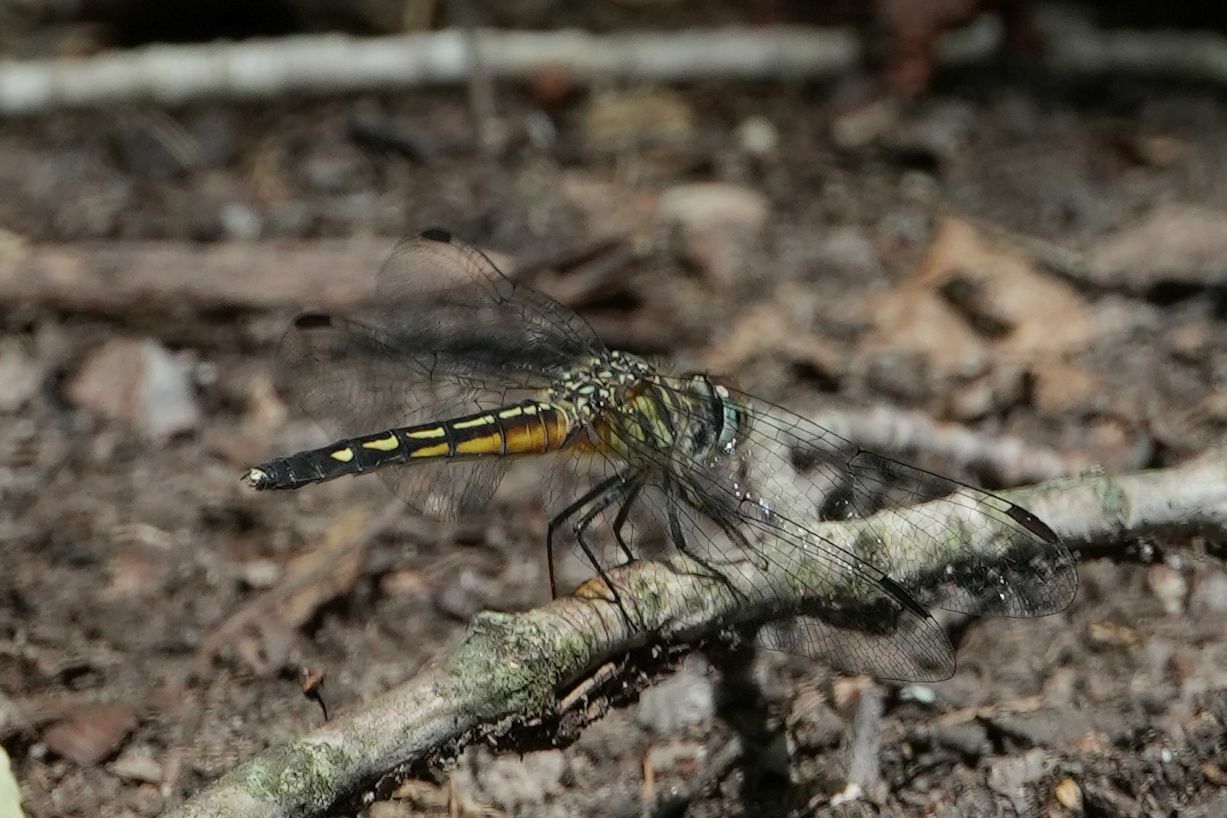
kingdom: Animalia
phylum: Arthropoda
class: Insecta
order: Odonata
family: Libellulidae
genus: Pachydiplax
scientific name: Pachydiplax longipennis
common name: Blue dasher
